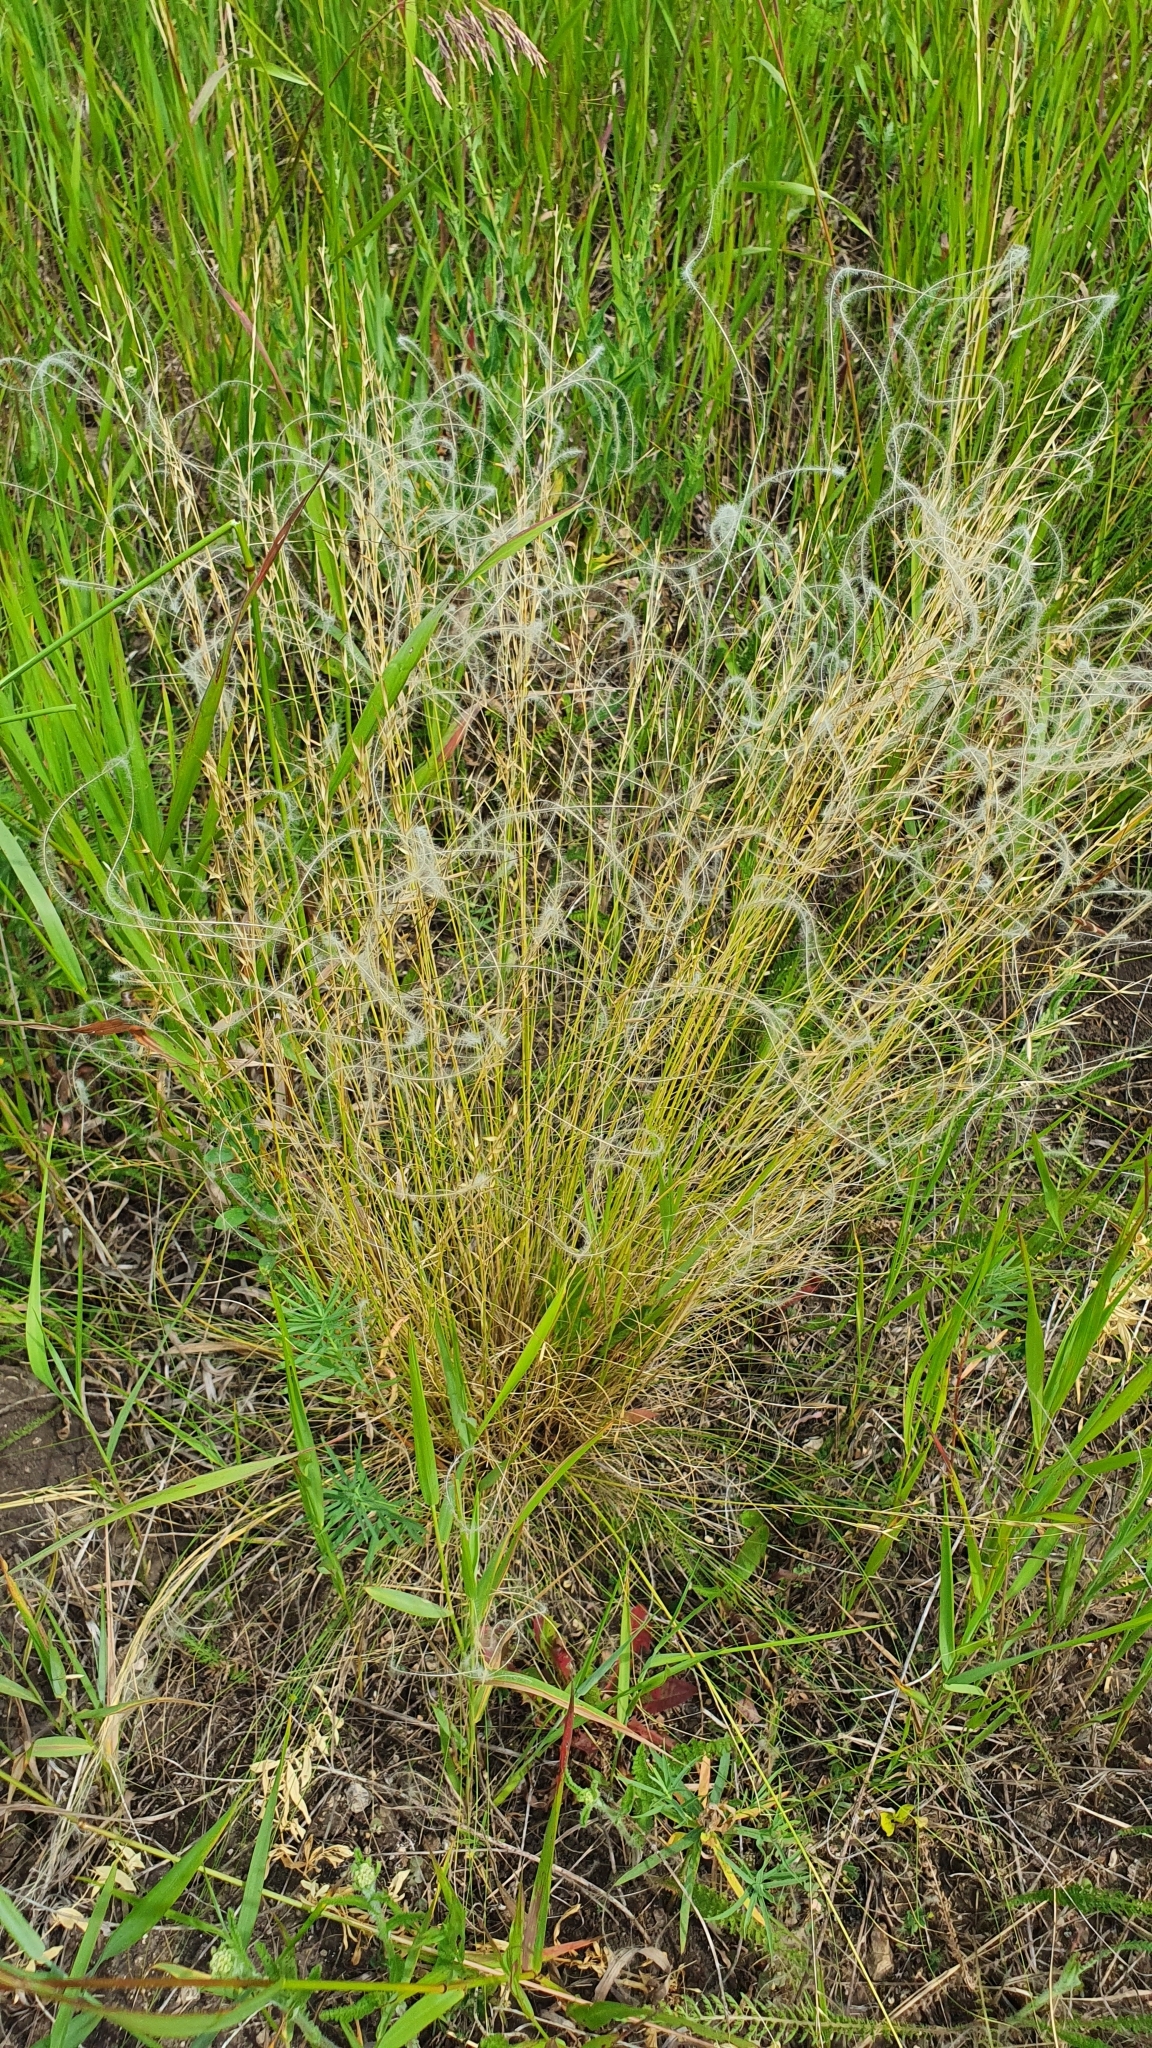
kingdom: Plantae
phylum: Tracheophyta
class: Liliopsida
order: Poales
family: Poaceae
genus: Stipa
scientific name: Stipa lessingiana
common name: Needle grass
